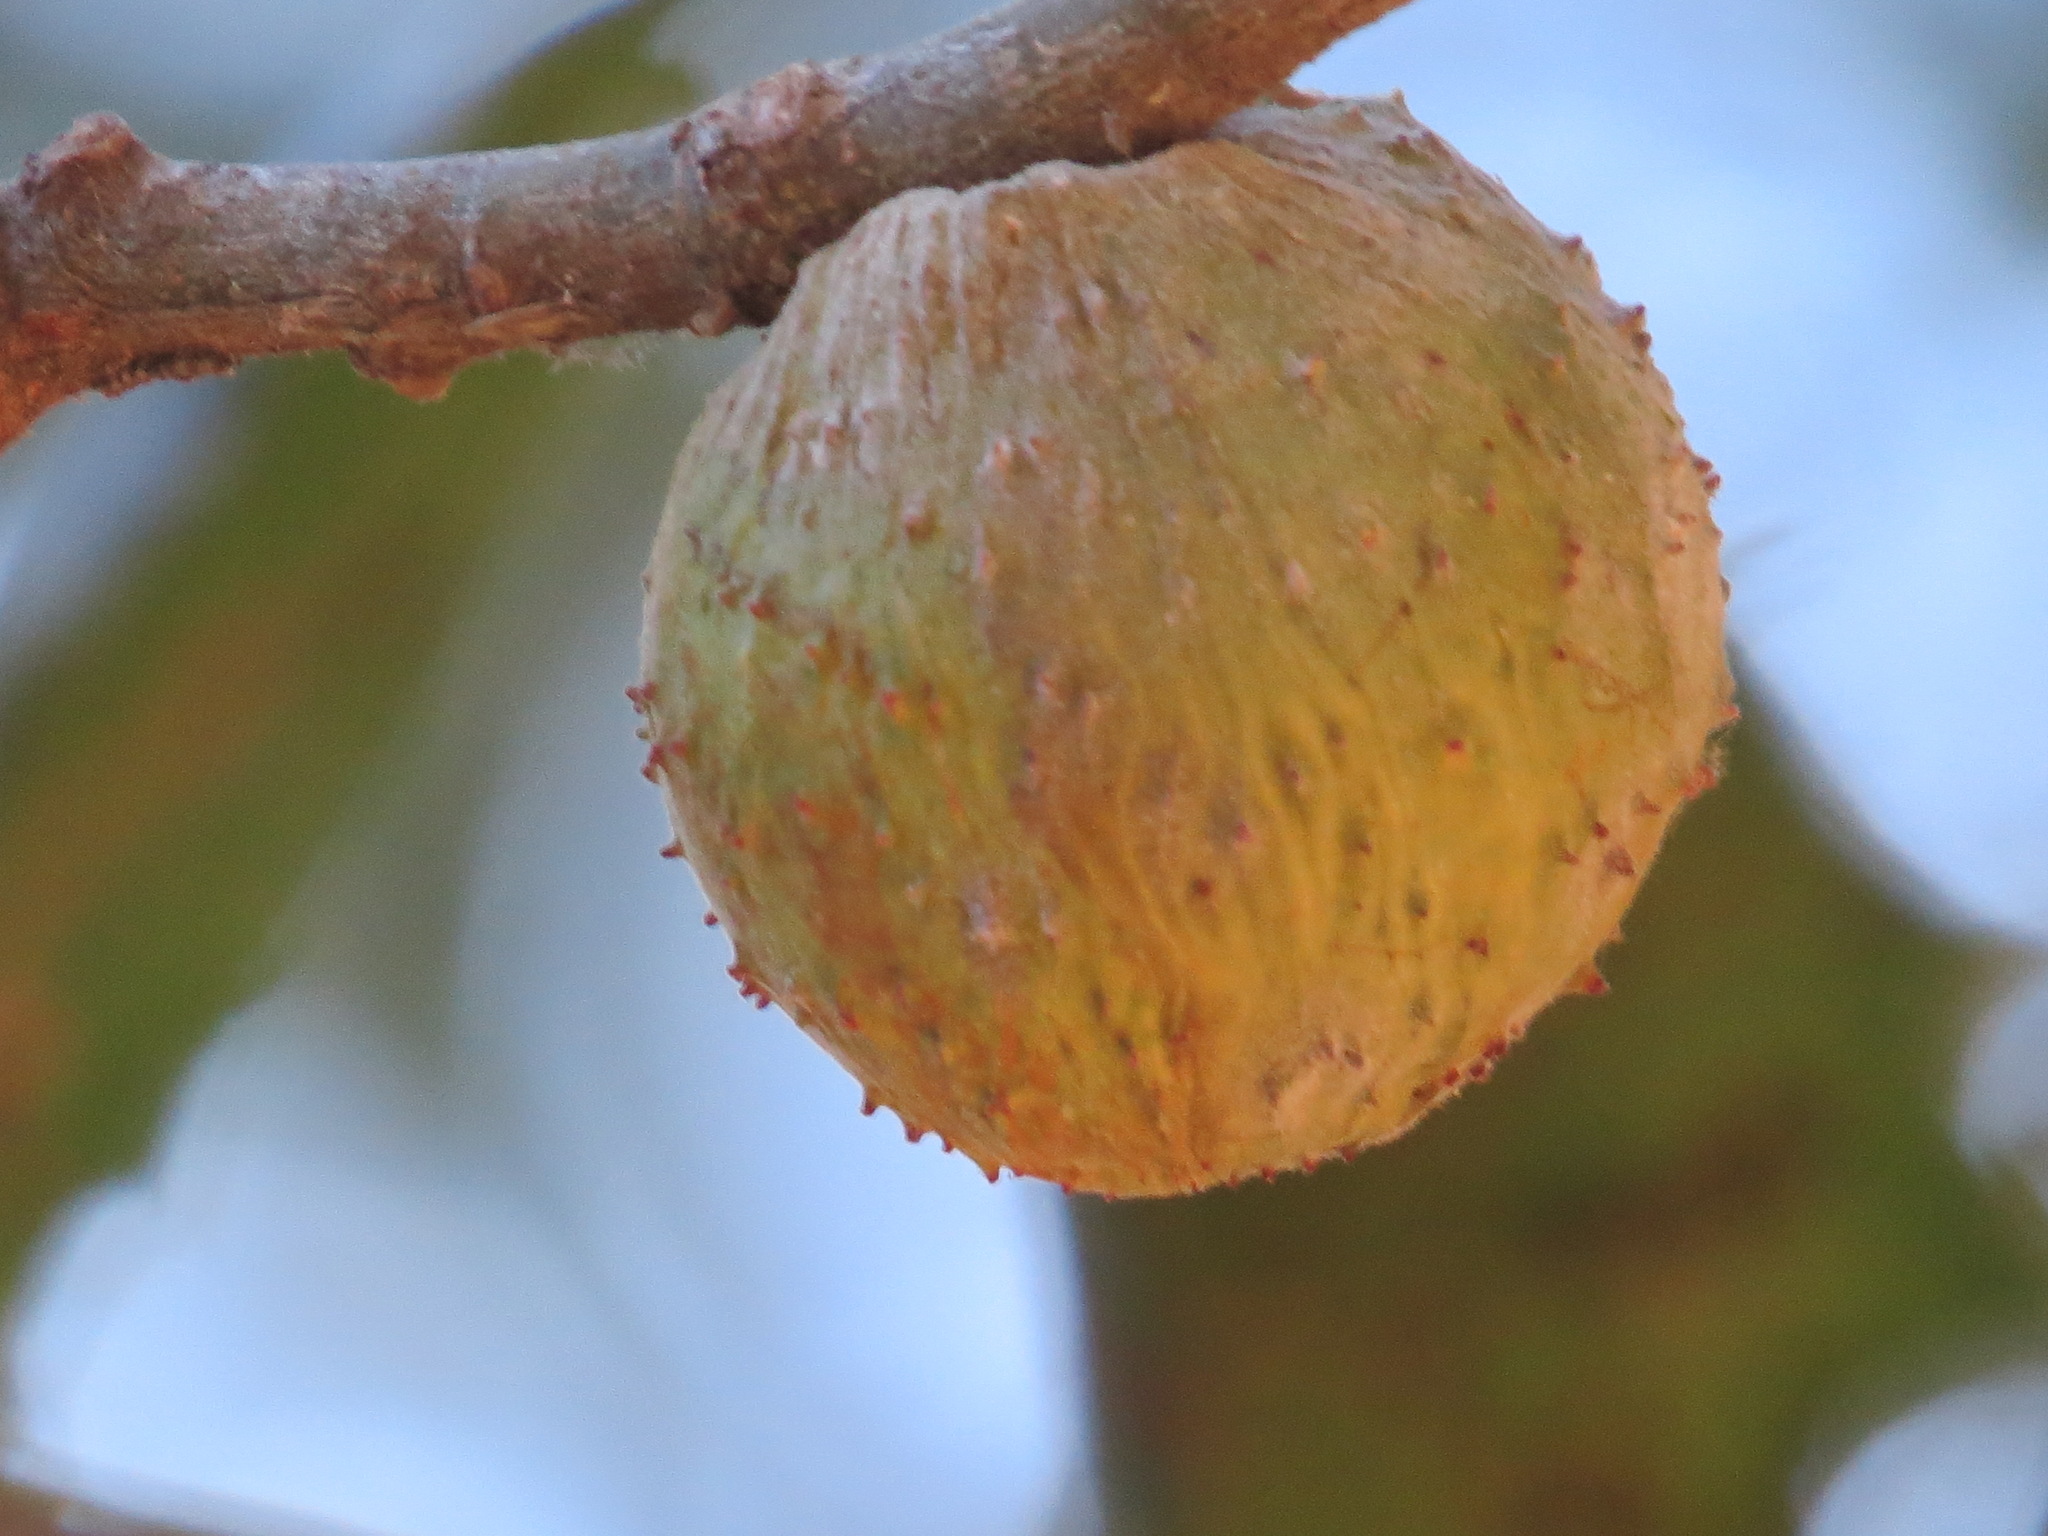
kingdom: Animalia
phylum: Arthropoda
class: Insecta
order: Hymenoptera
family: Cynipidae
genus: Amphibolips
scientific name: Amphibolips quercuspomiformis
